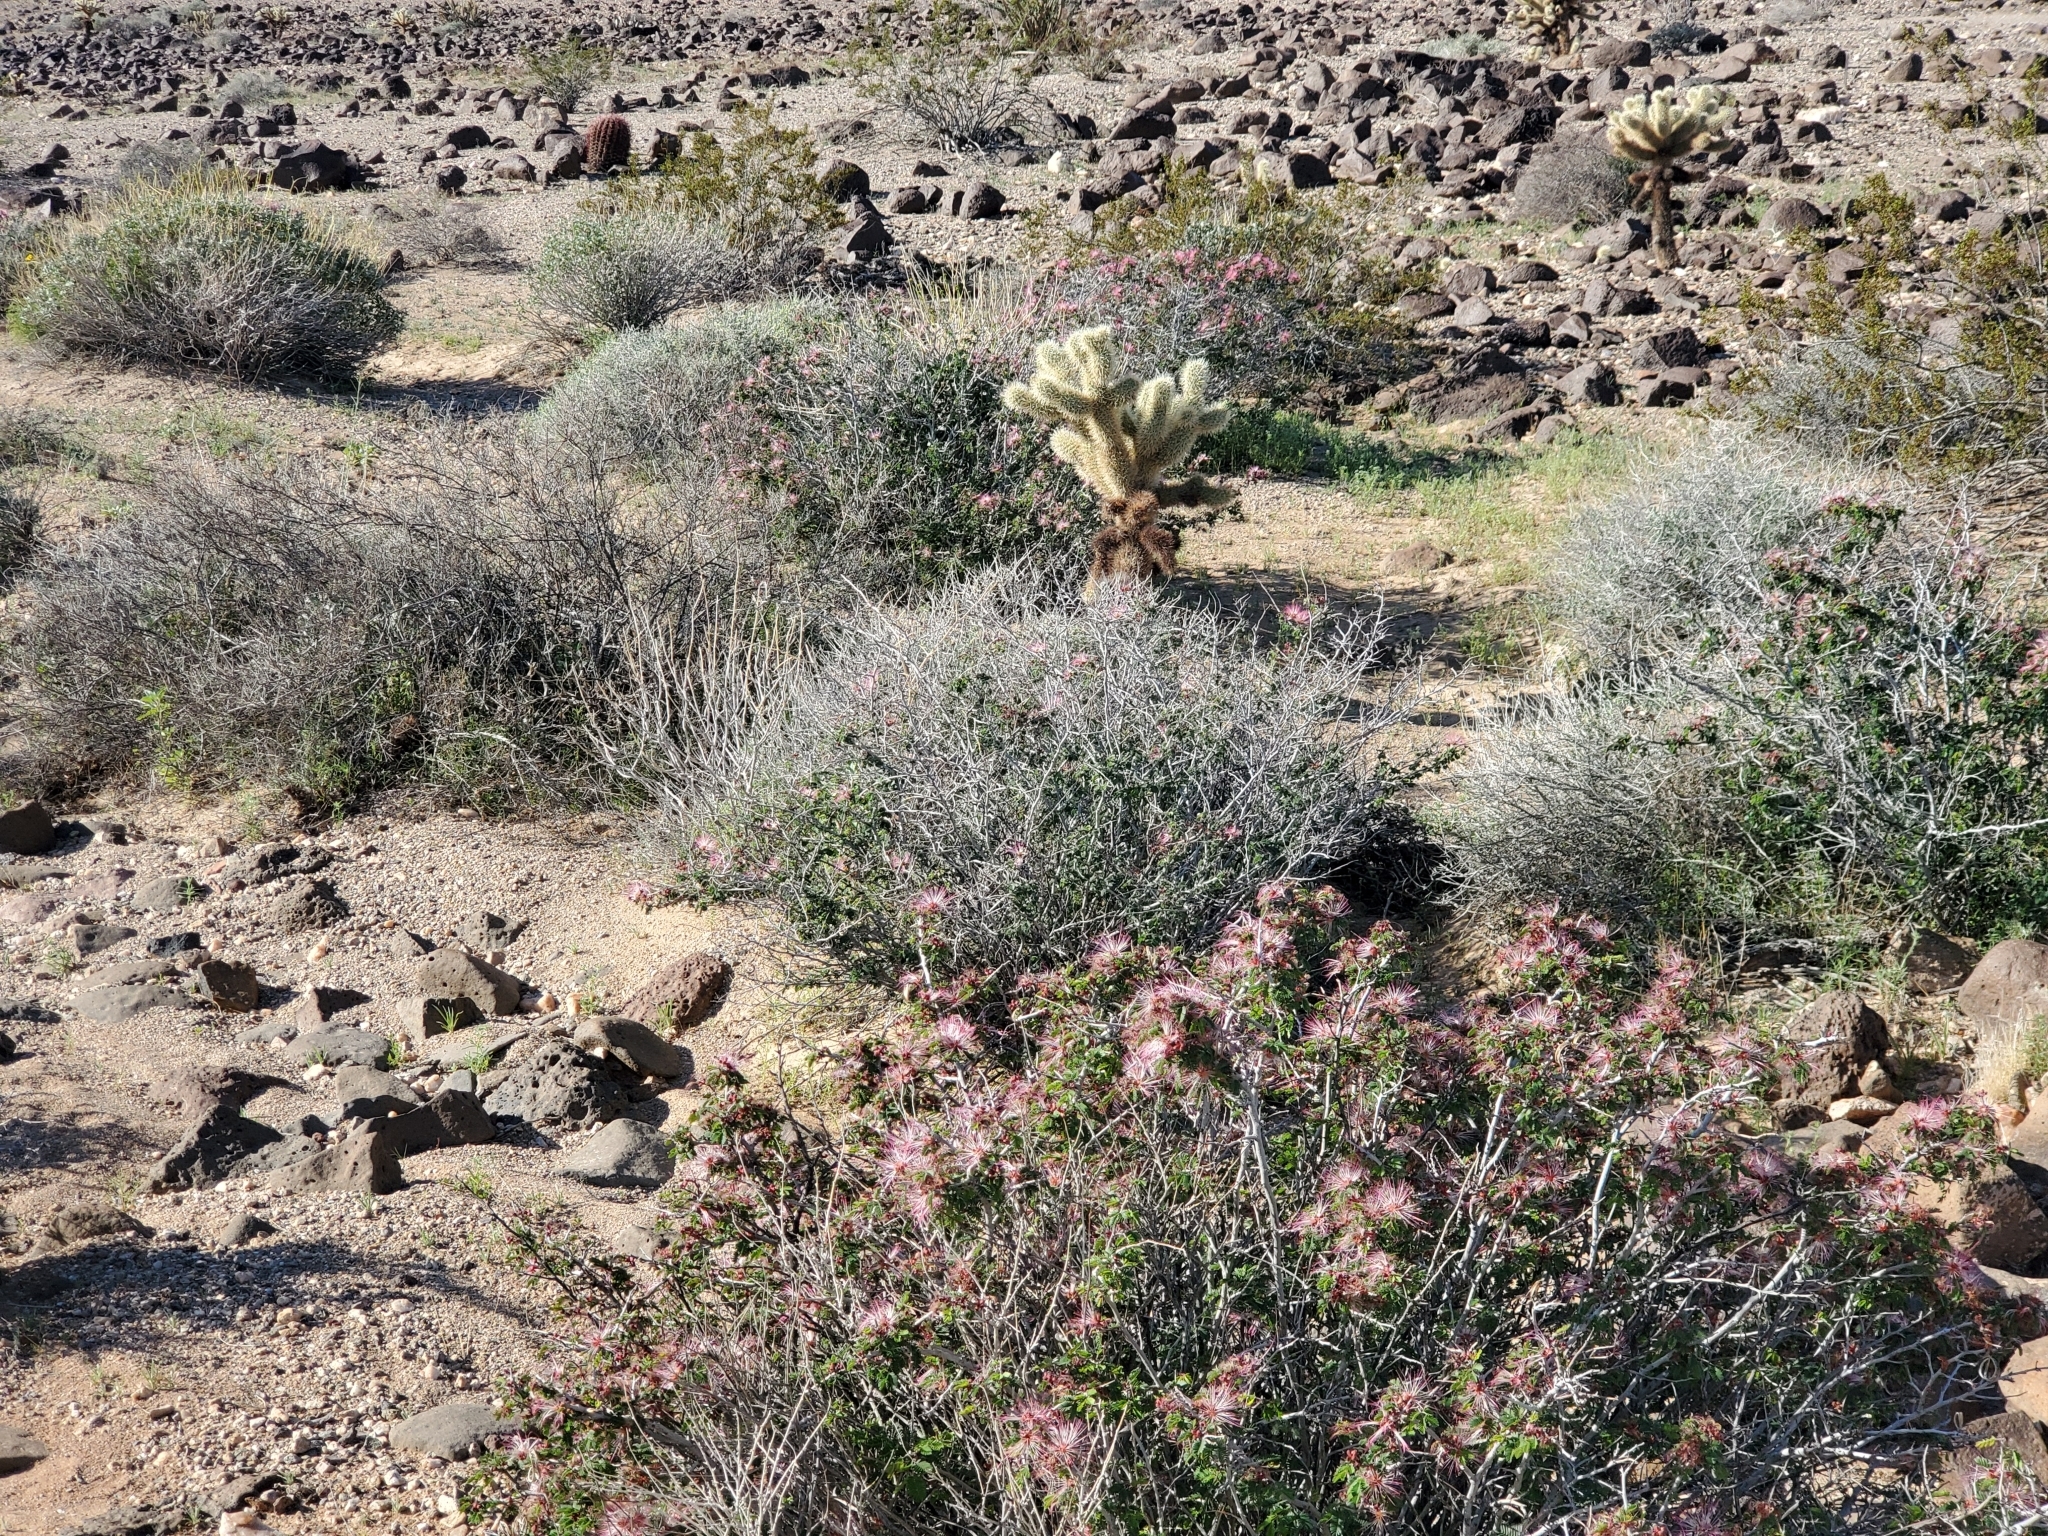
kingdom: Plantae
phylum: Tracheophyta
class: Magnoliopsida
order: Fabales
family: Fabaceae
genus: Calliandra
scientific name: Calliandra eriophylla
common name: Fairy-duster
